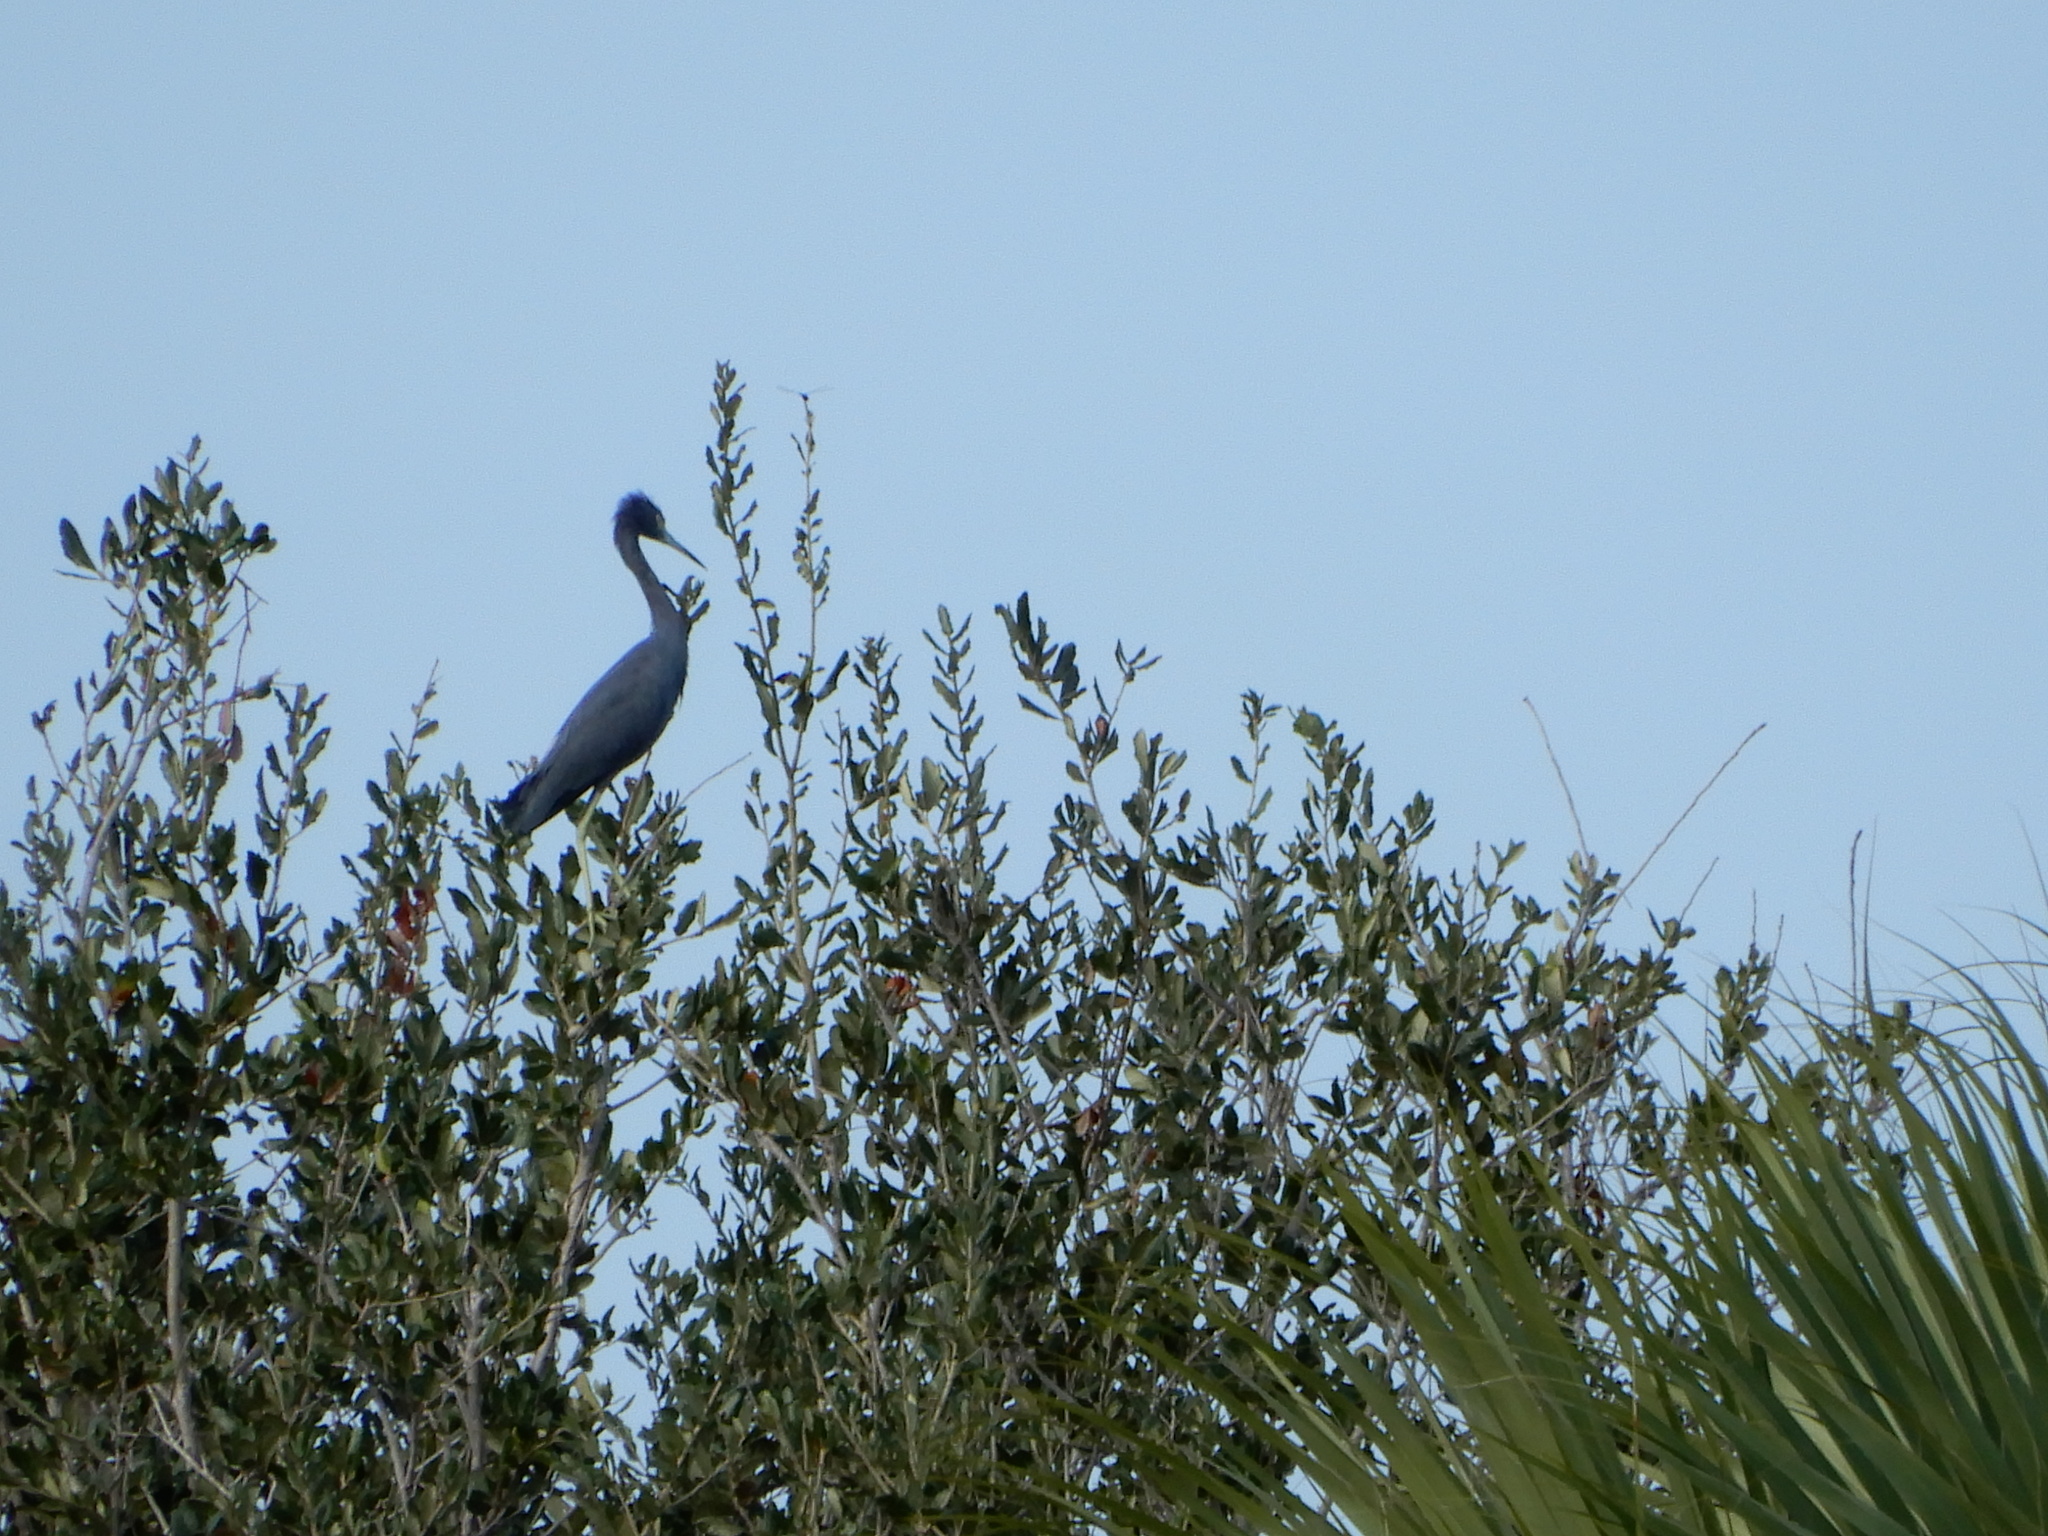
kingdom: Animalia
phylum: Chordata
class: Aves
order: Pelecaniformes
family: Ardeidae
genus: Egretta
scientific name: Egretta caerulea
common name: Little blue heron
